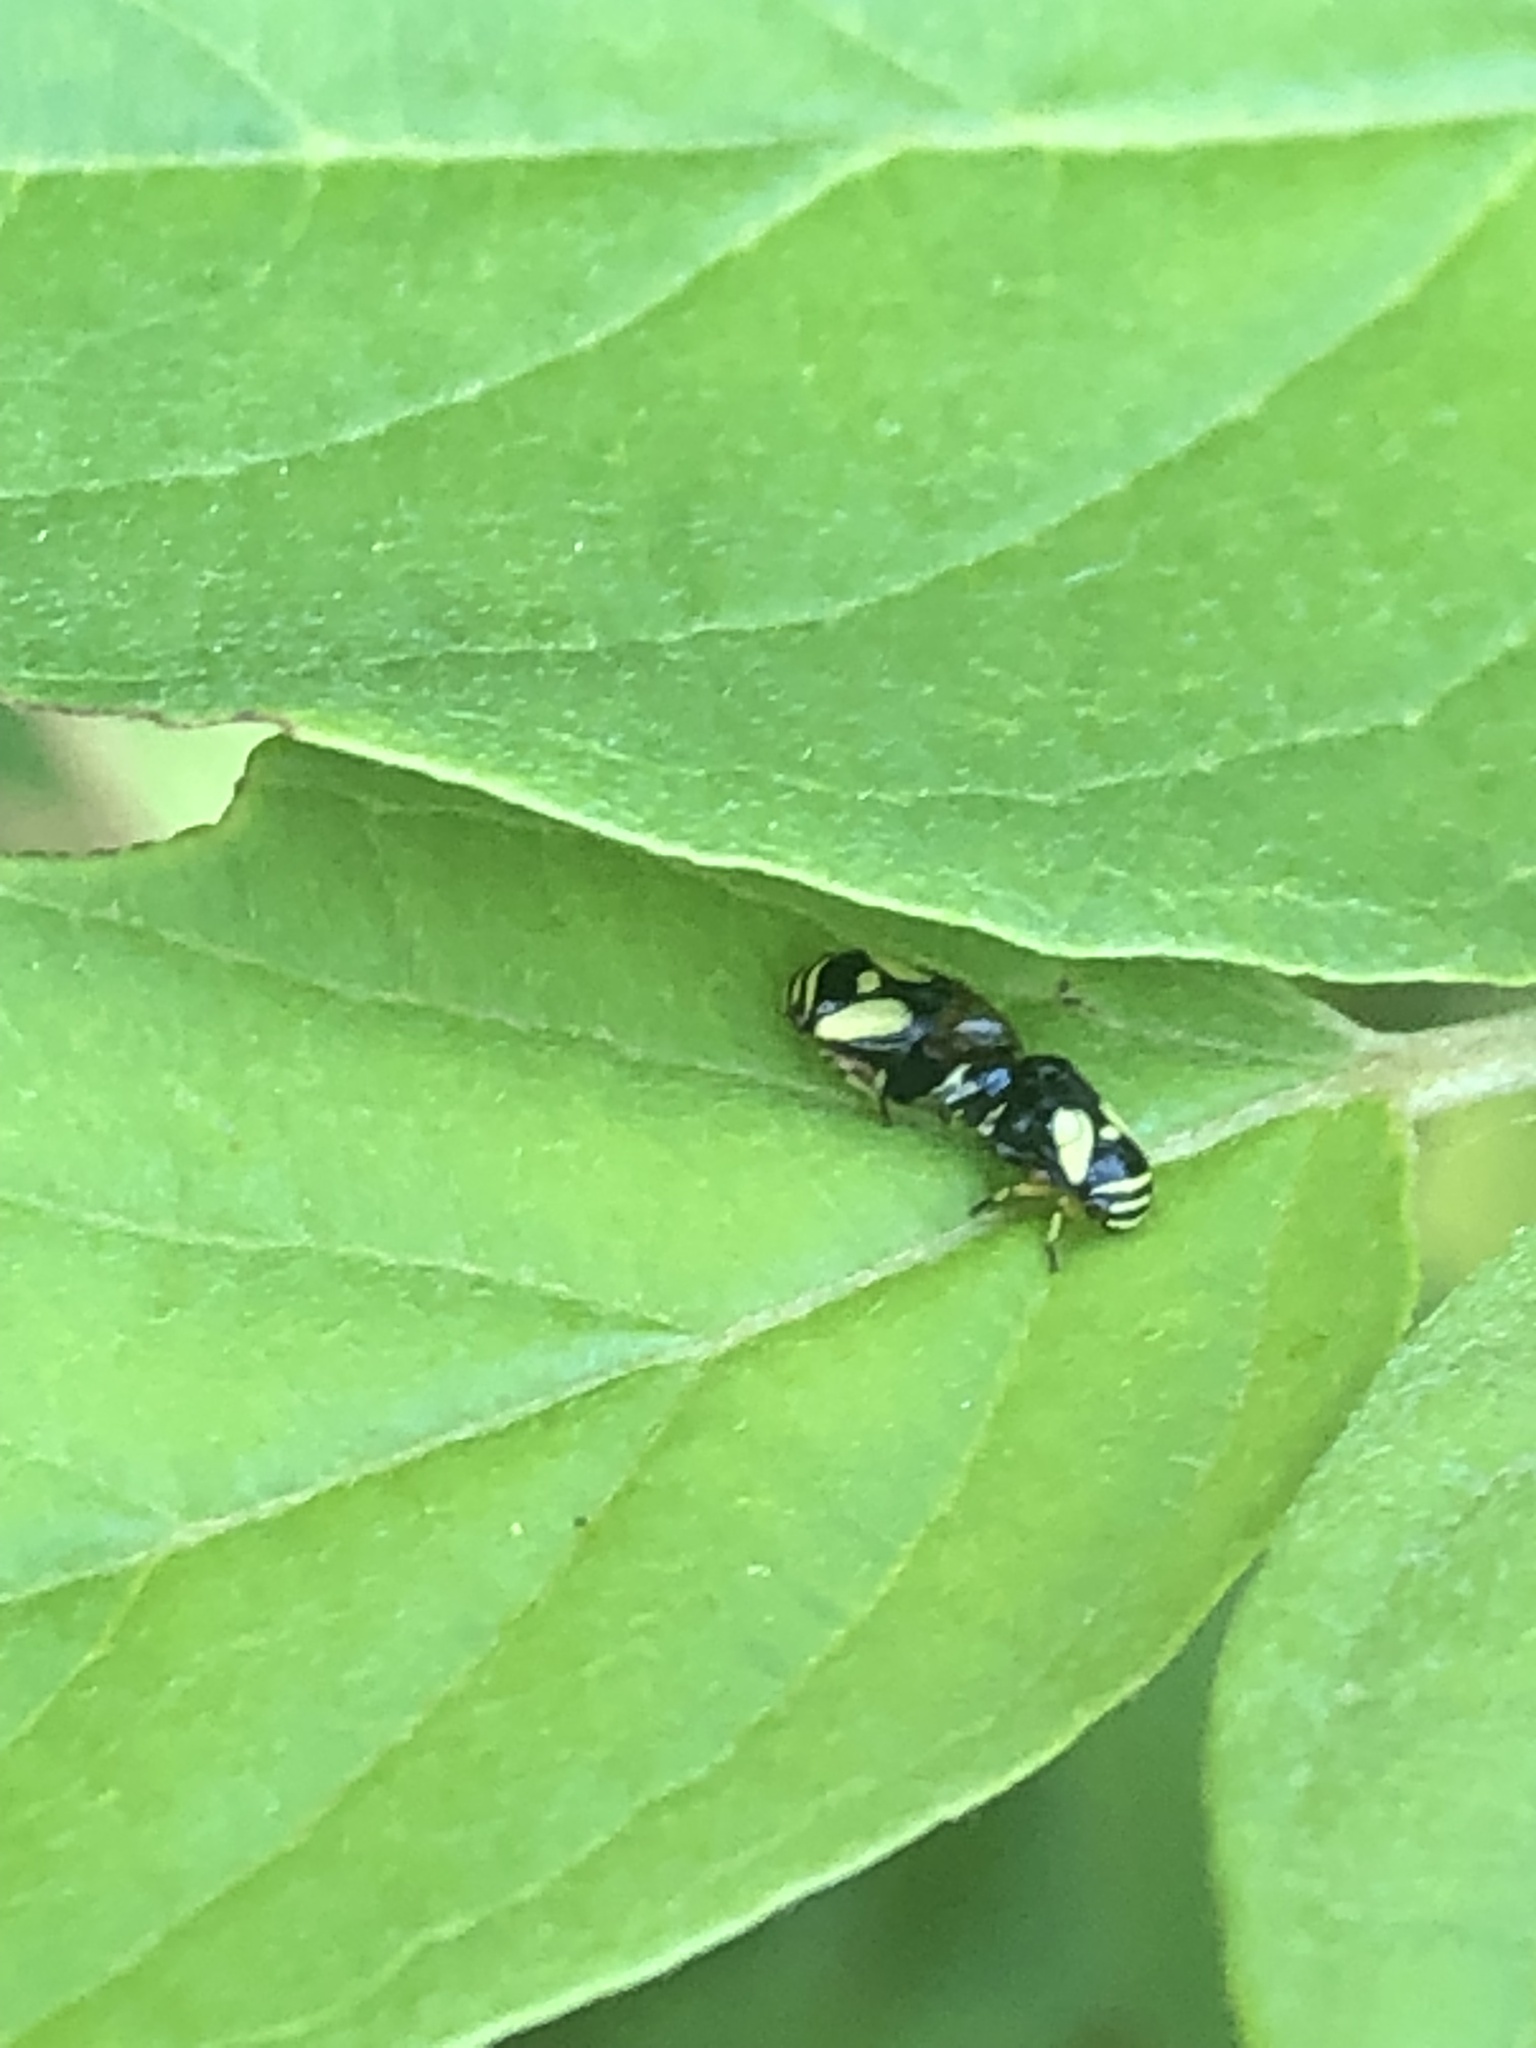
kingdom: Animalia
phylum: Arthropoda
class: Insecta
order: Hemiptera
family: Clastopteridae
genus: Clastoptera
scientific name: Clastoptera proteus
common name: Dogwood spittlebug
